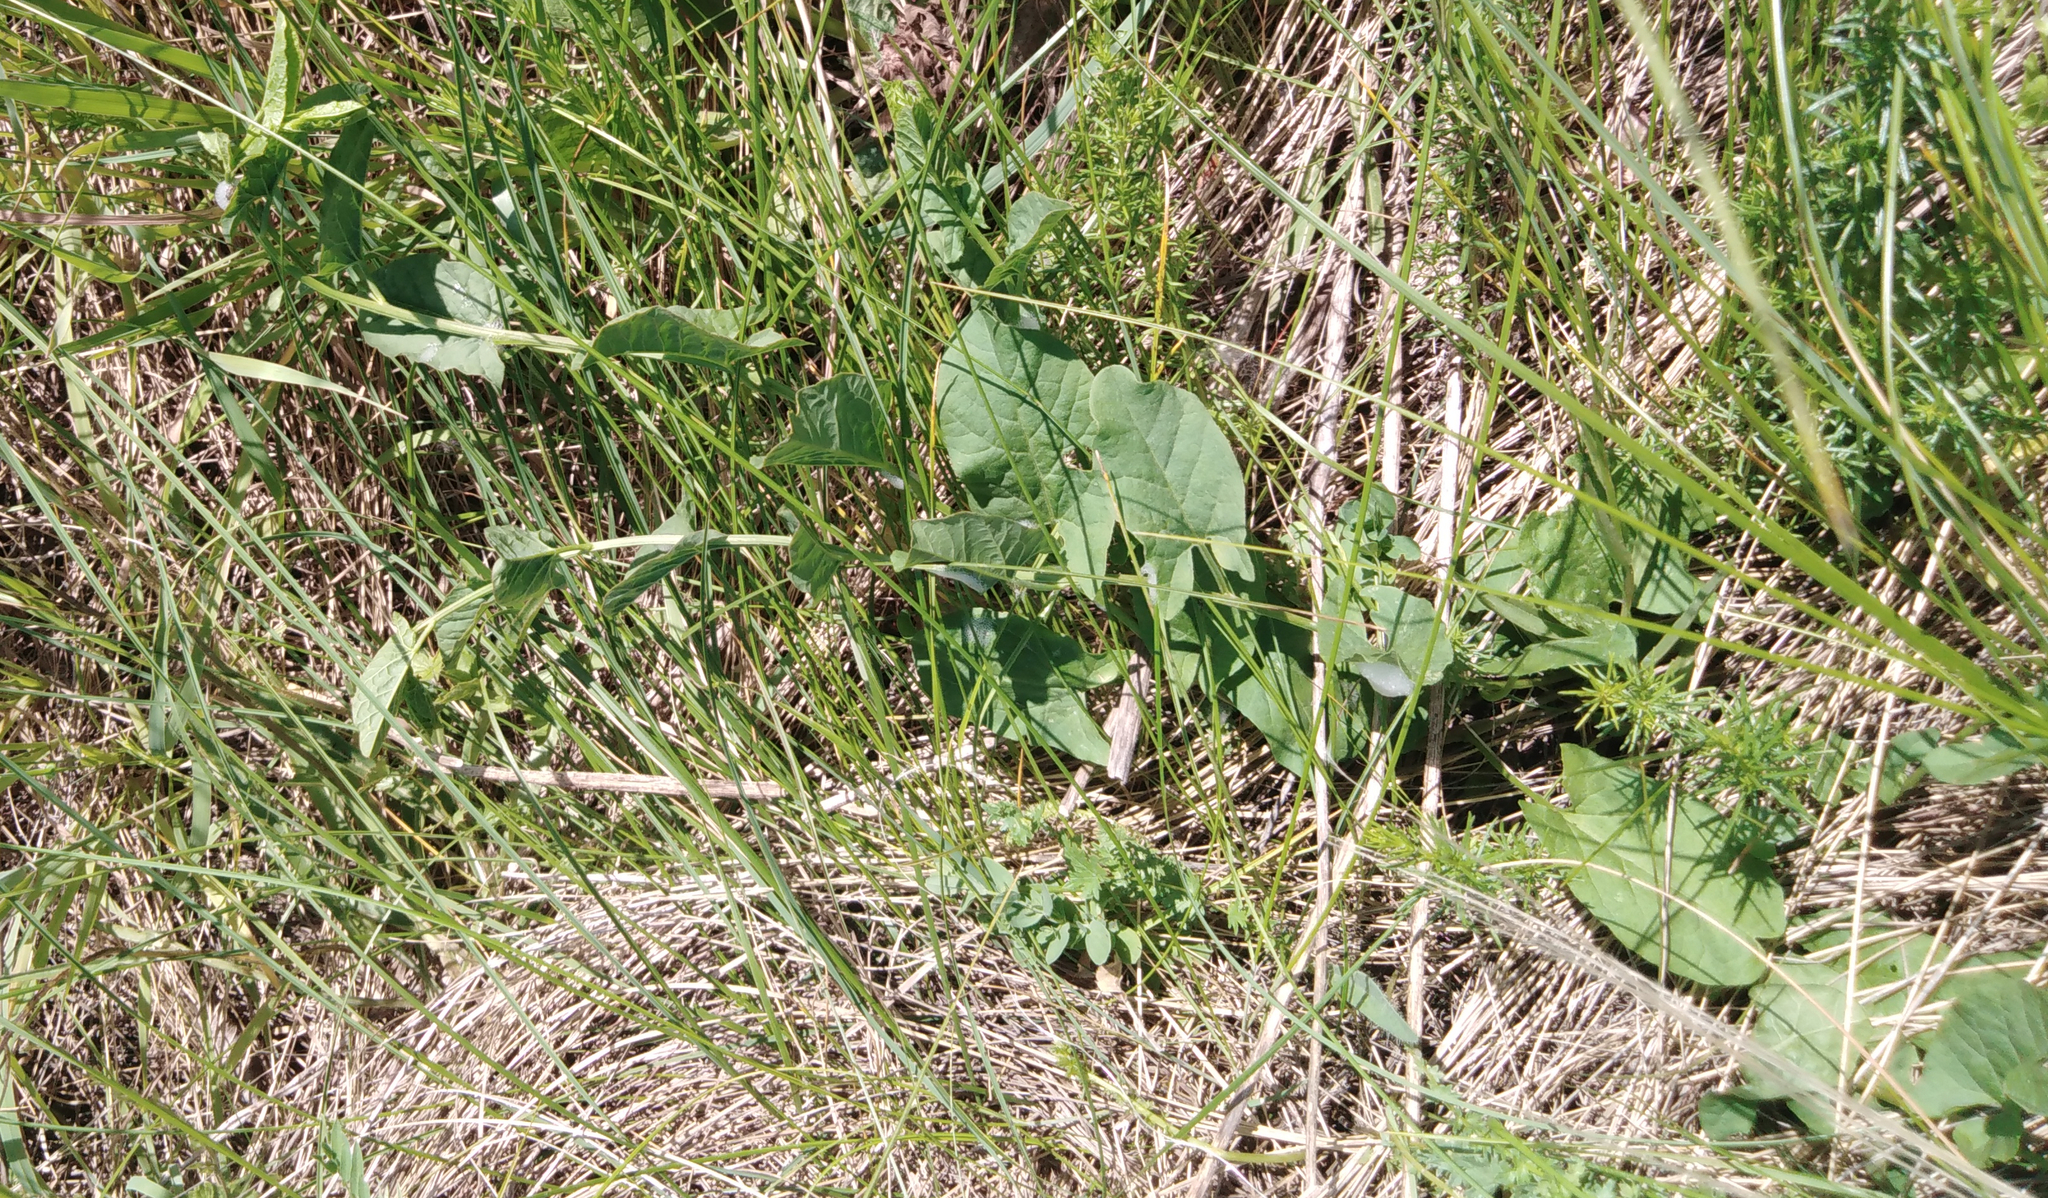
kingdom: Plantae
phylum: Tracheophyta
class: Magnoliopsida
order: Solanales
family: Convolvulaceae
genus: Convolvulus
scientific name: Convolvulus arvensis
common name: Field bindweed
